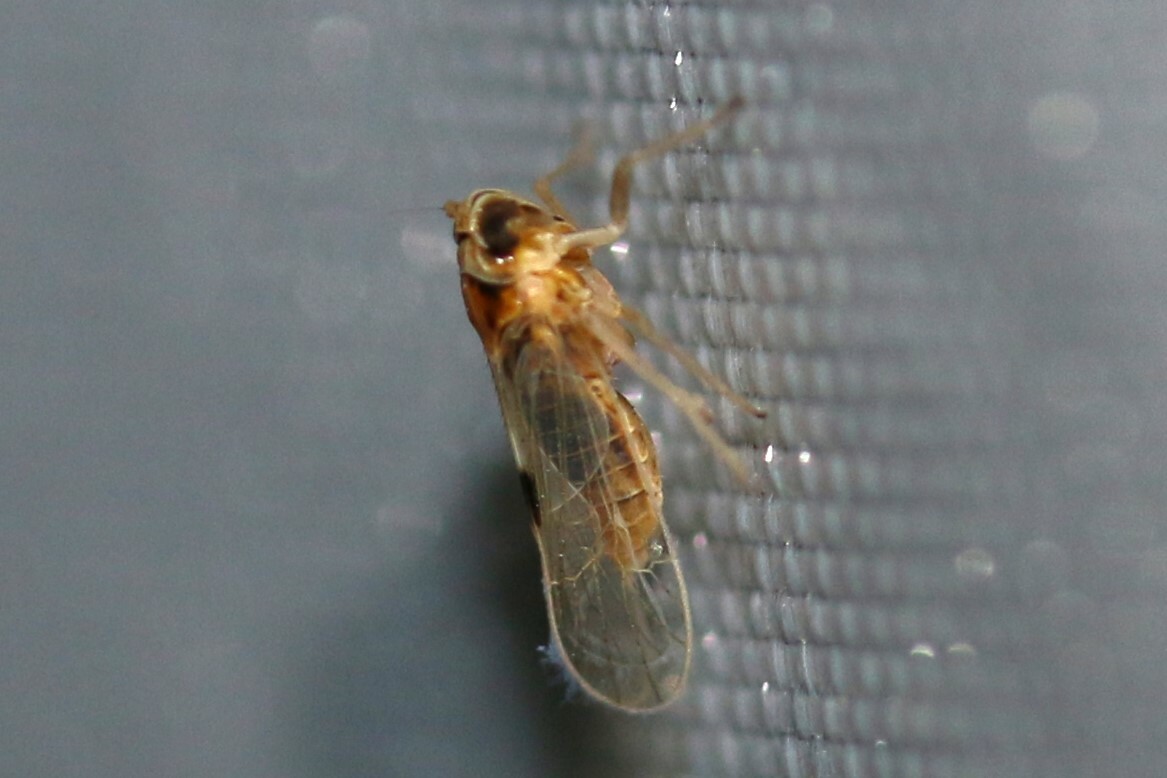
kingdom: Animalia
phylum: Arthropoda
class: Insecta
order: Hemiptera
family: Delphacidae
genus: Laodelphax
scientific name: Laodelphax striatellus
